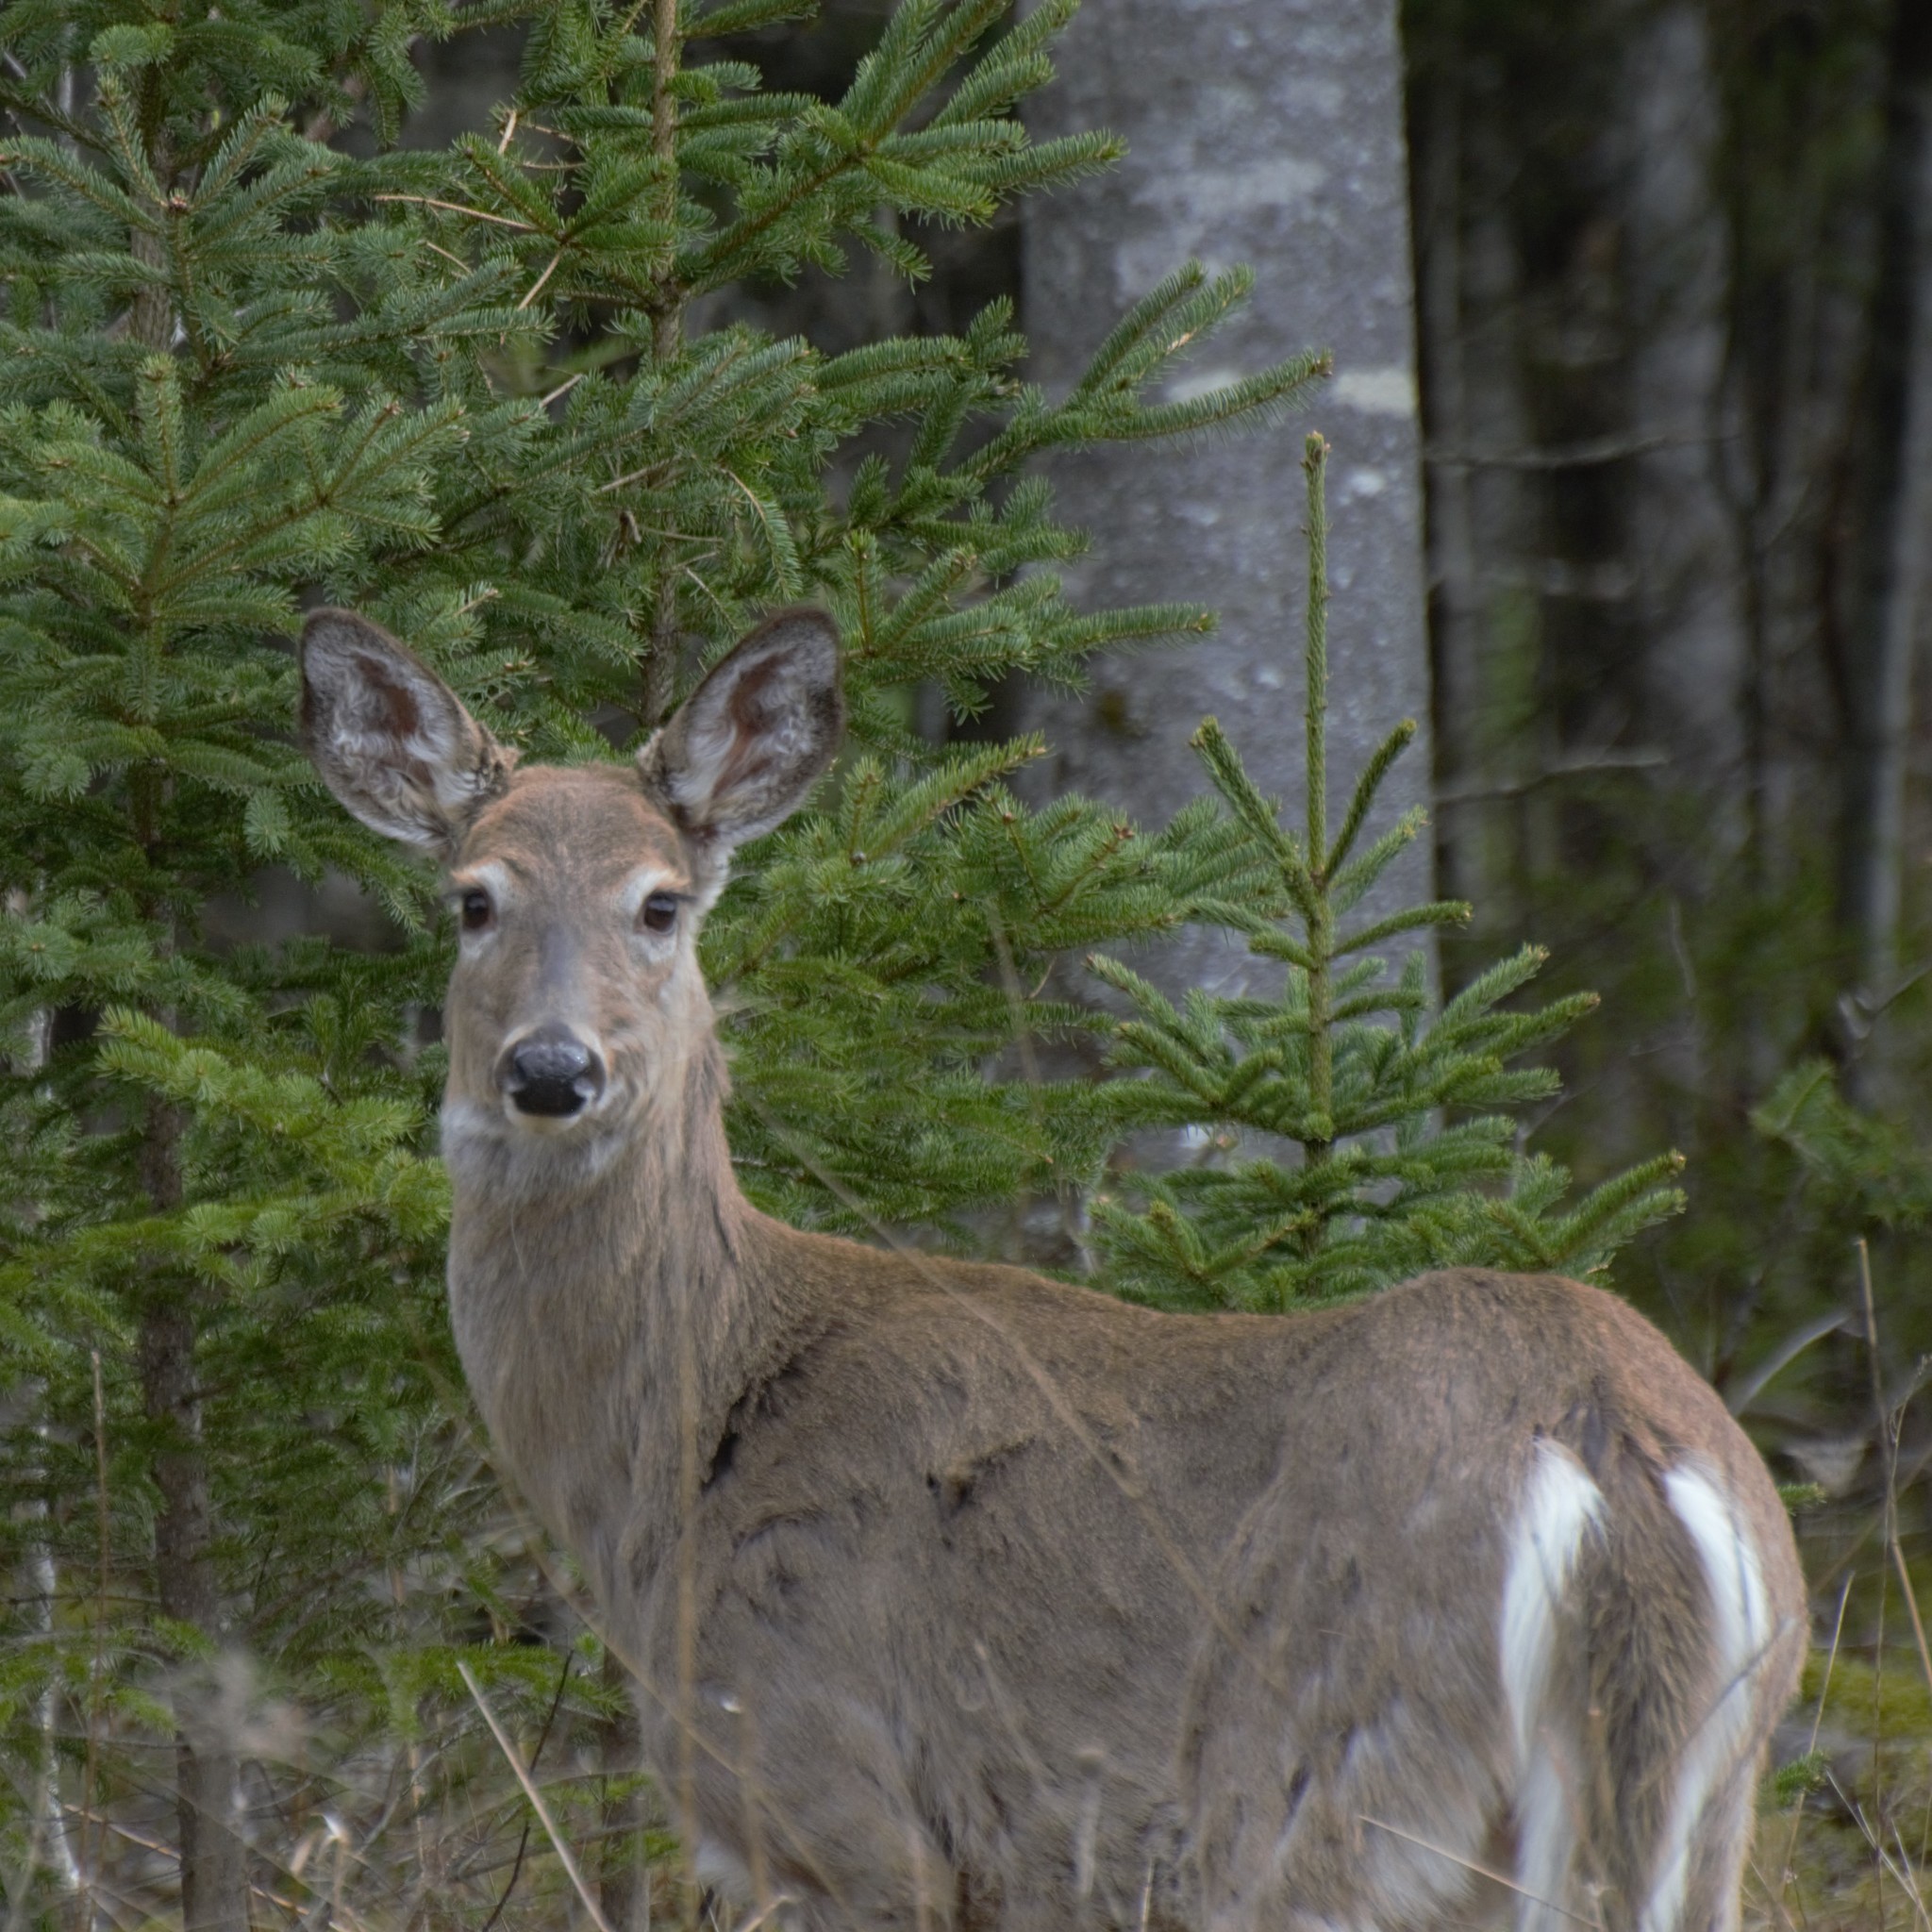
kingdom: Animalia
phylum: Chordata
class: Mammalia
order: Artiodactyla
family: Cervidae
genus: Odocoileus
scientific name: Odocoileus virginianus
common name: White-tailed deer
